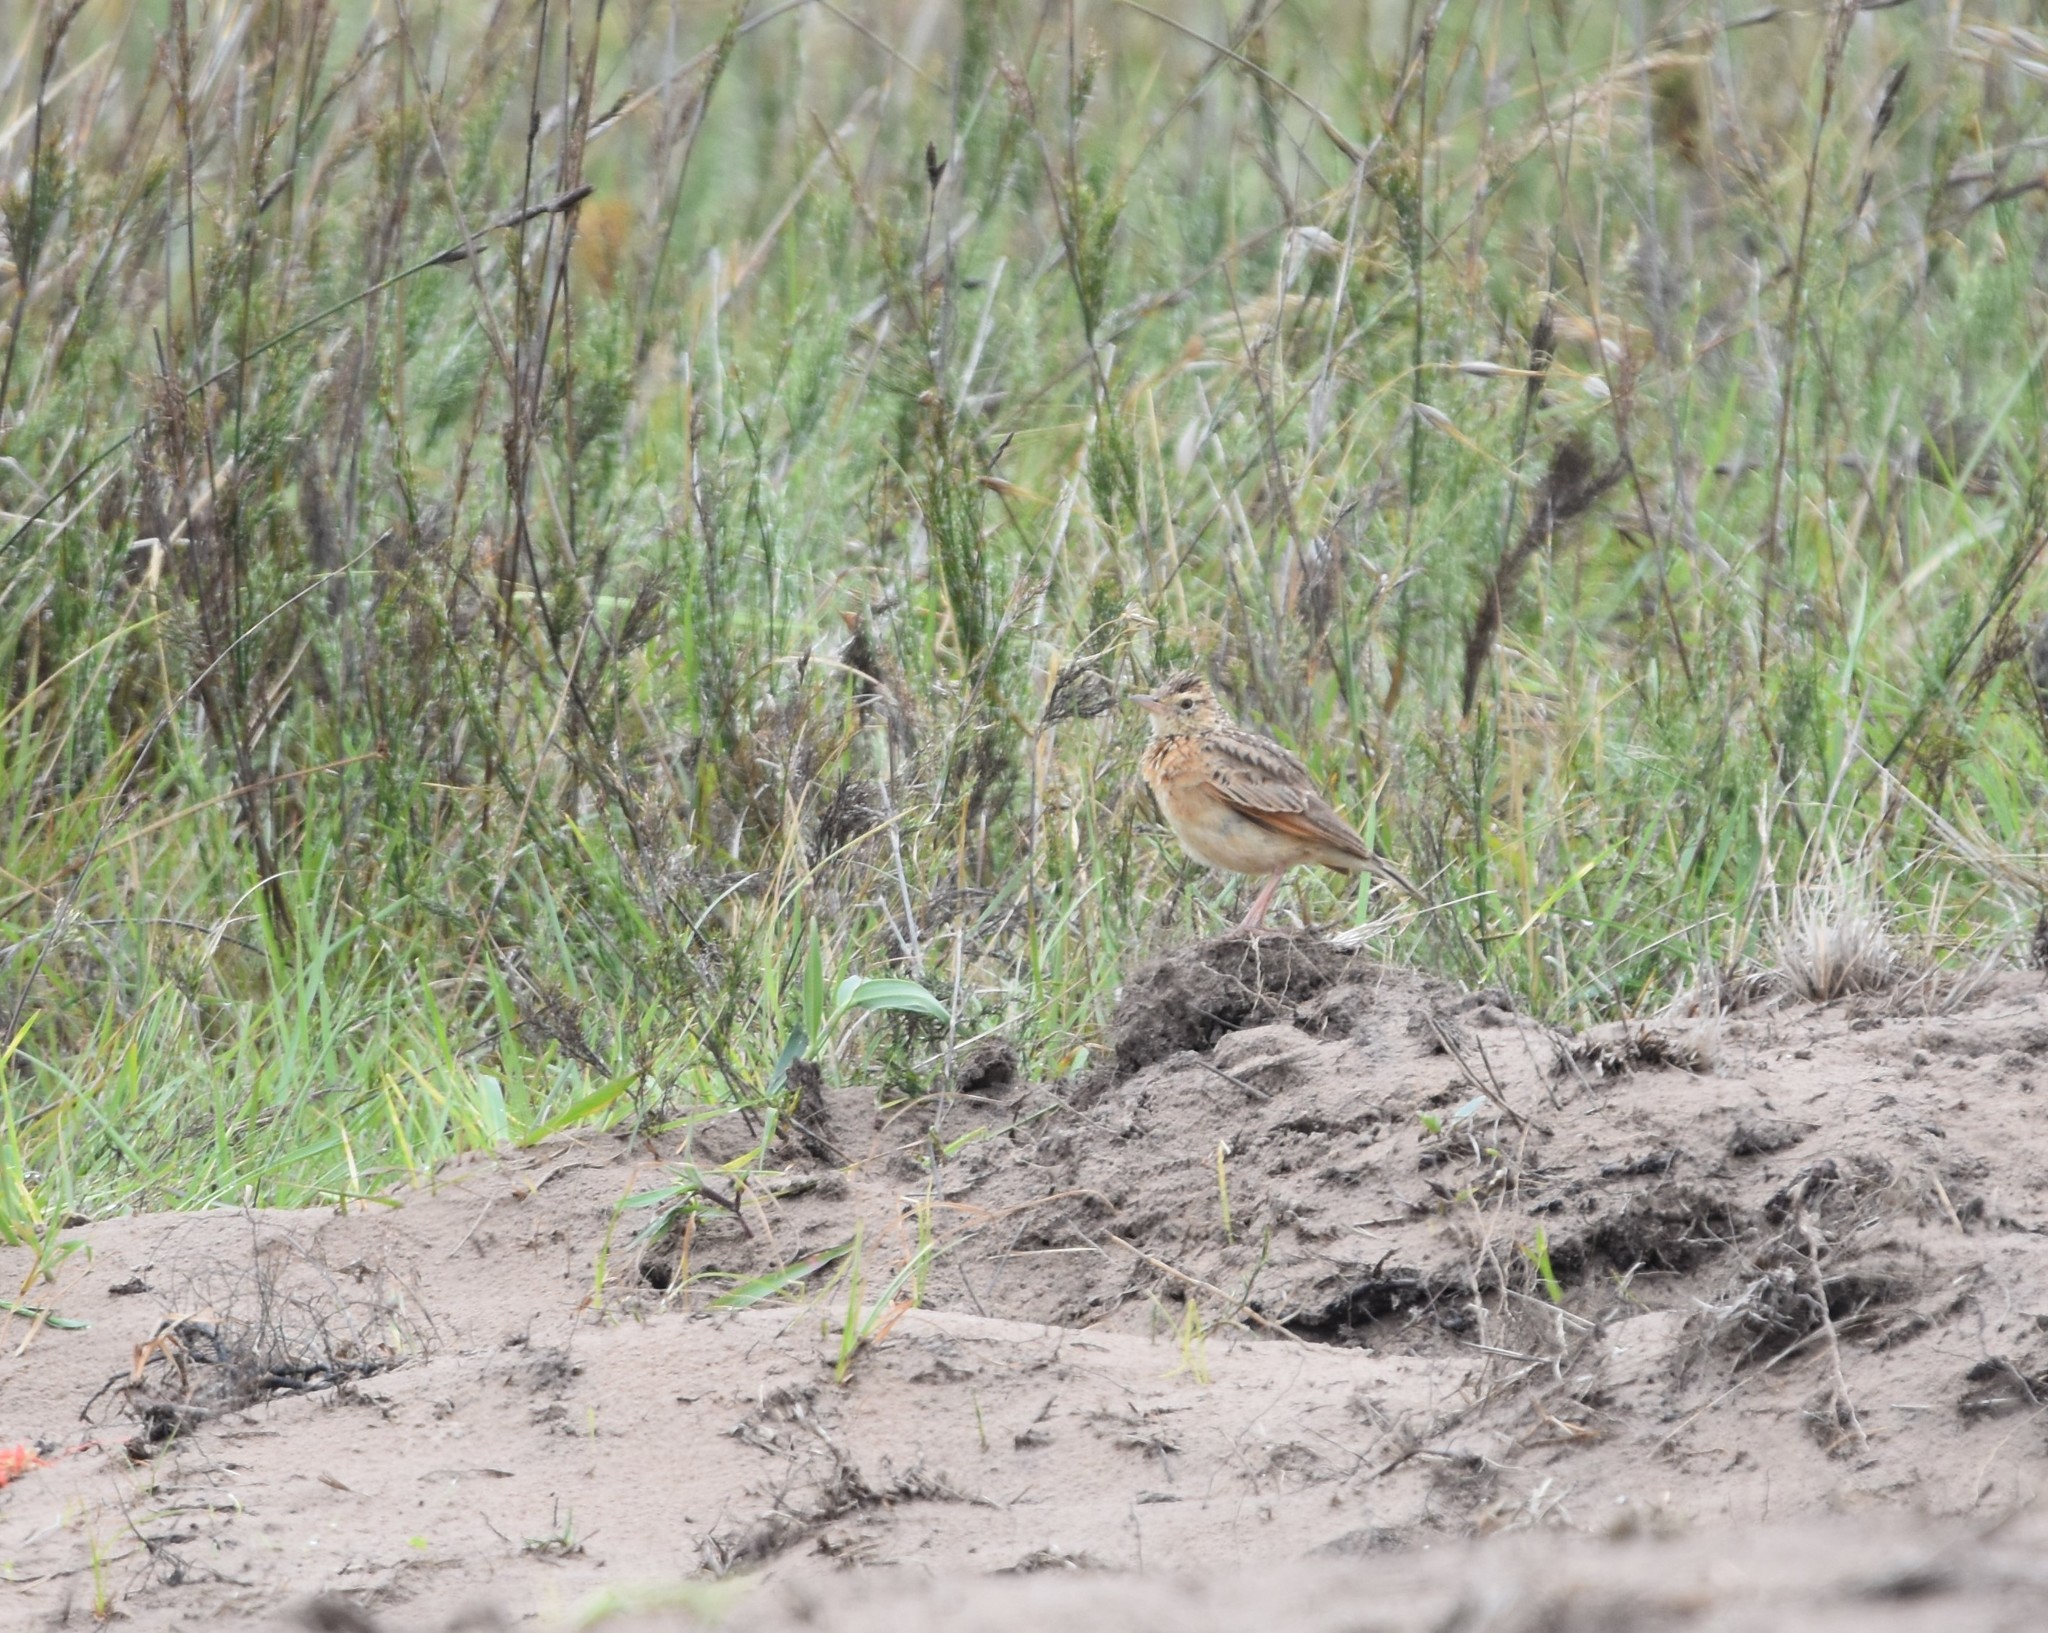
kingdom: Animalia
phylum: Chordata
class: Aves
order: Passeriformes
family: Alaudidae
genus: Mirafra
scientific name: Mirafra africana
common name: Rufous-naped lark
